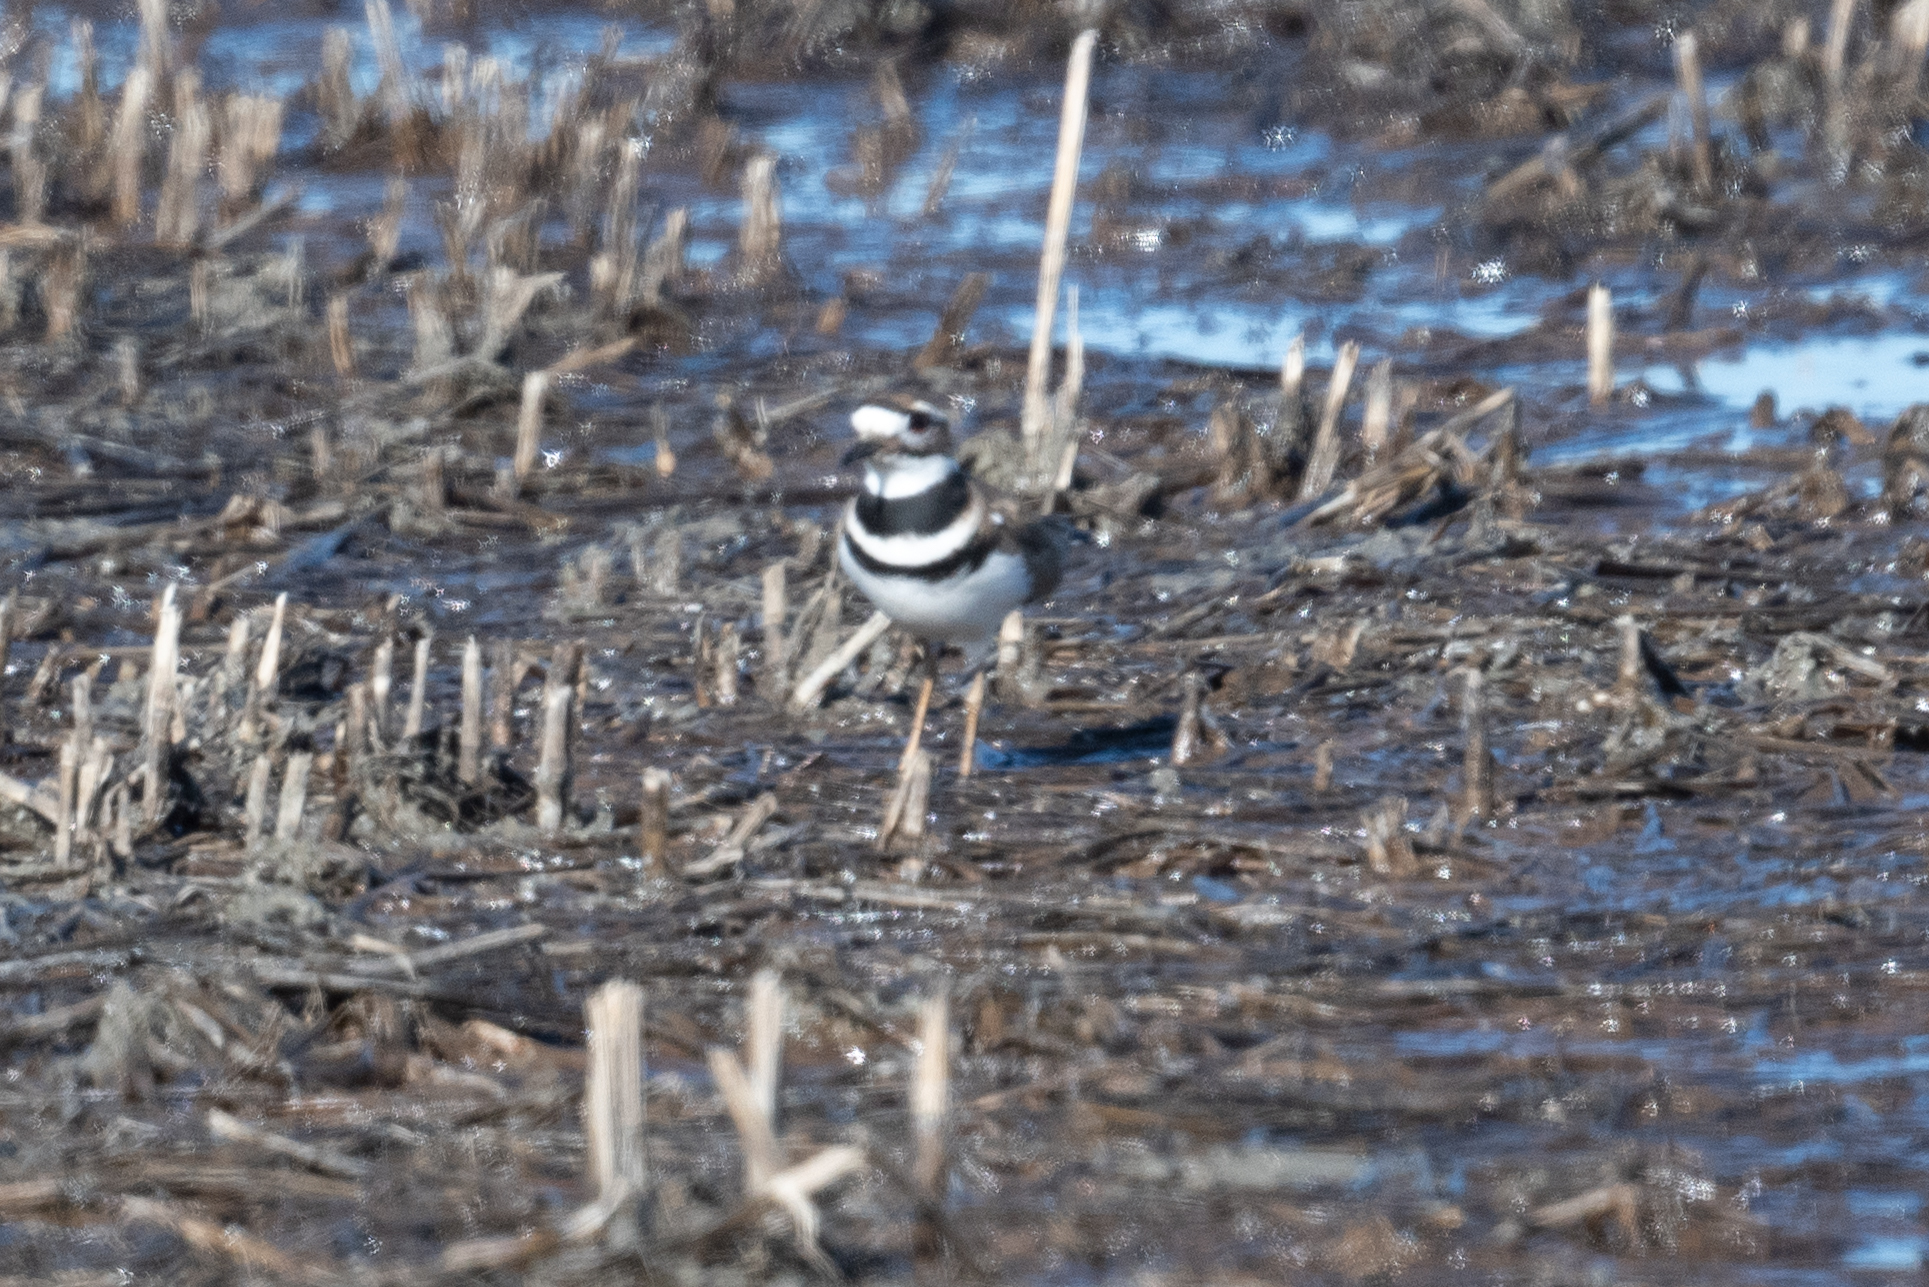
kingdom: Animalia
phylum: Chordata
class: Aves
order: Charadriiformes
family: Charadriidae
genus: Charadrius
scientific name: Charadrius vociferus
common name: Killdeer
